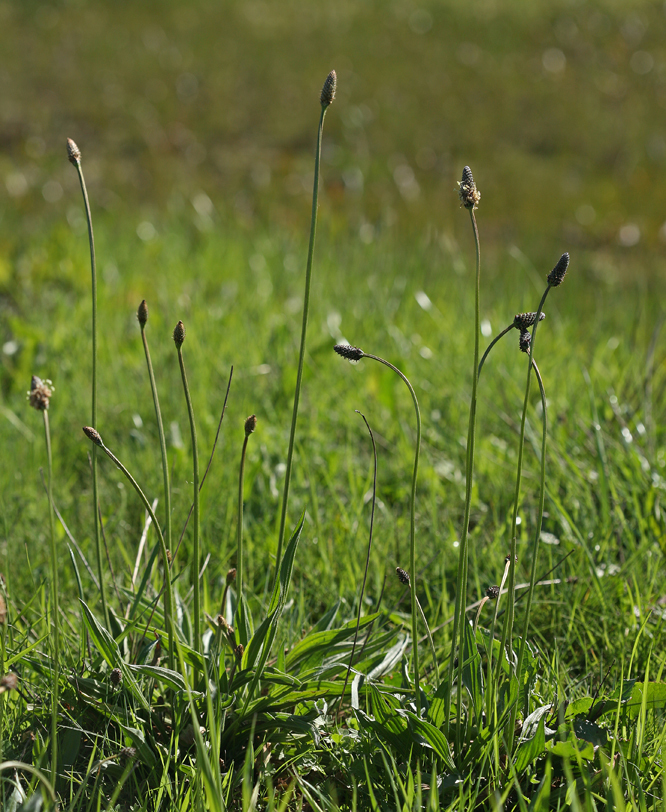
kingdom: Plantae
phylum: Tracheophyta
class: Magnoliopsida
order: Lamiales
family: Plantaginaceae
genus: Plantago
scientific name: Plantago lanceolata
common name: Ribwort plantain
